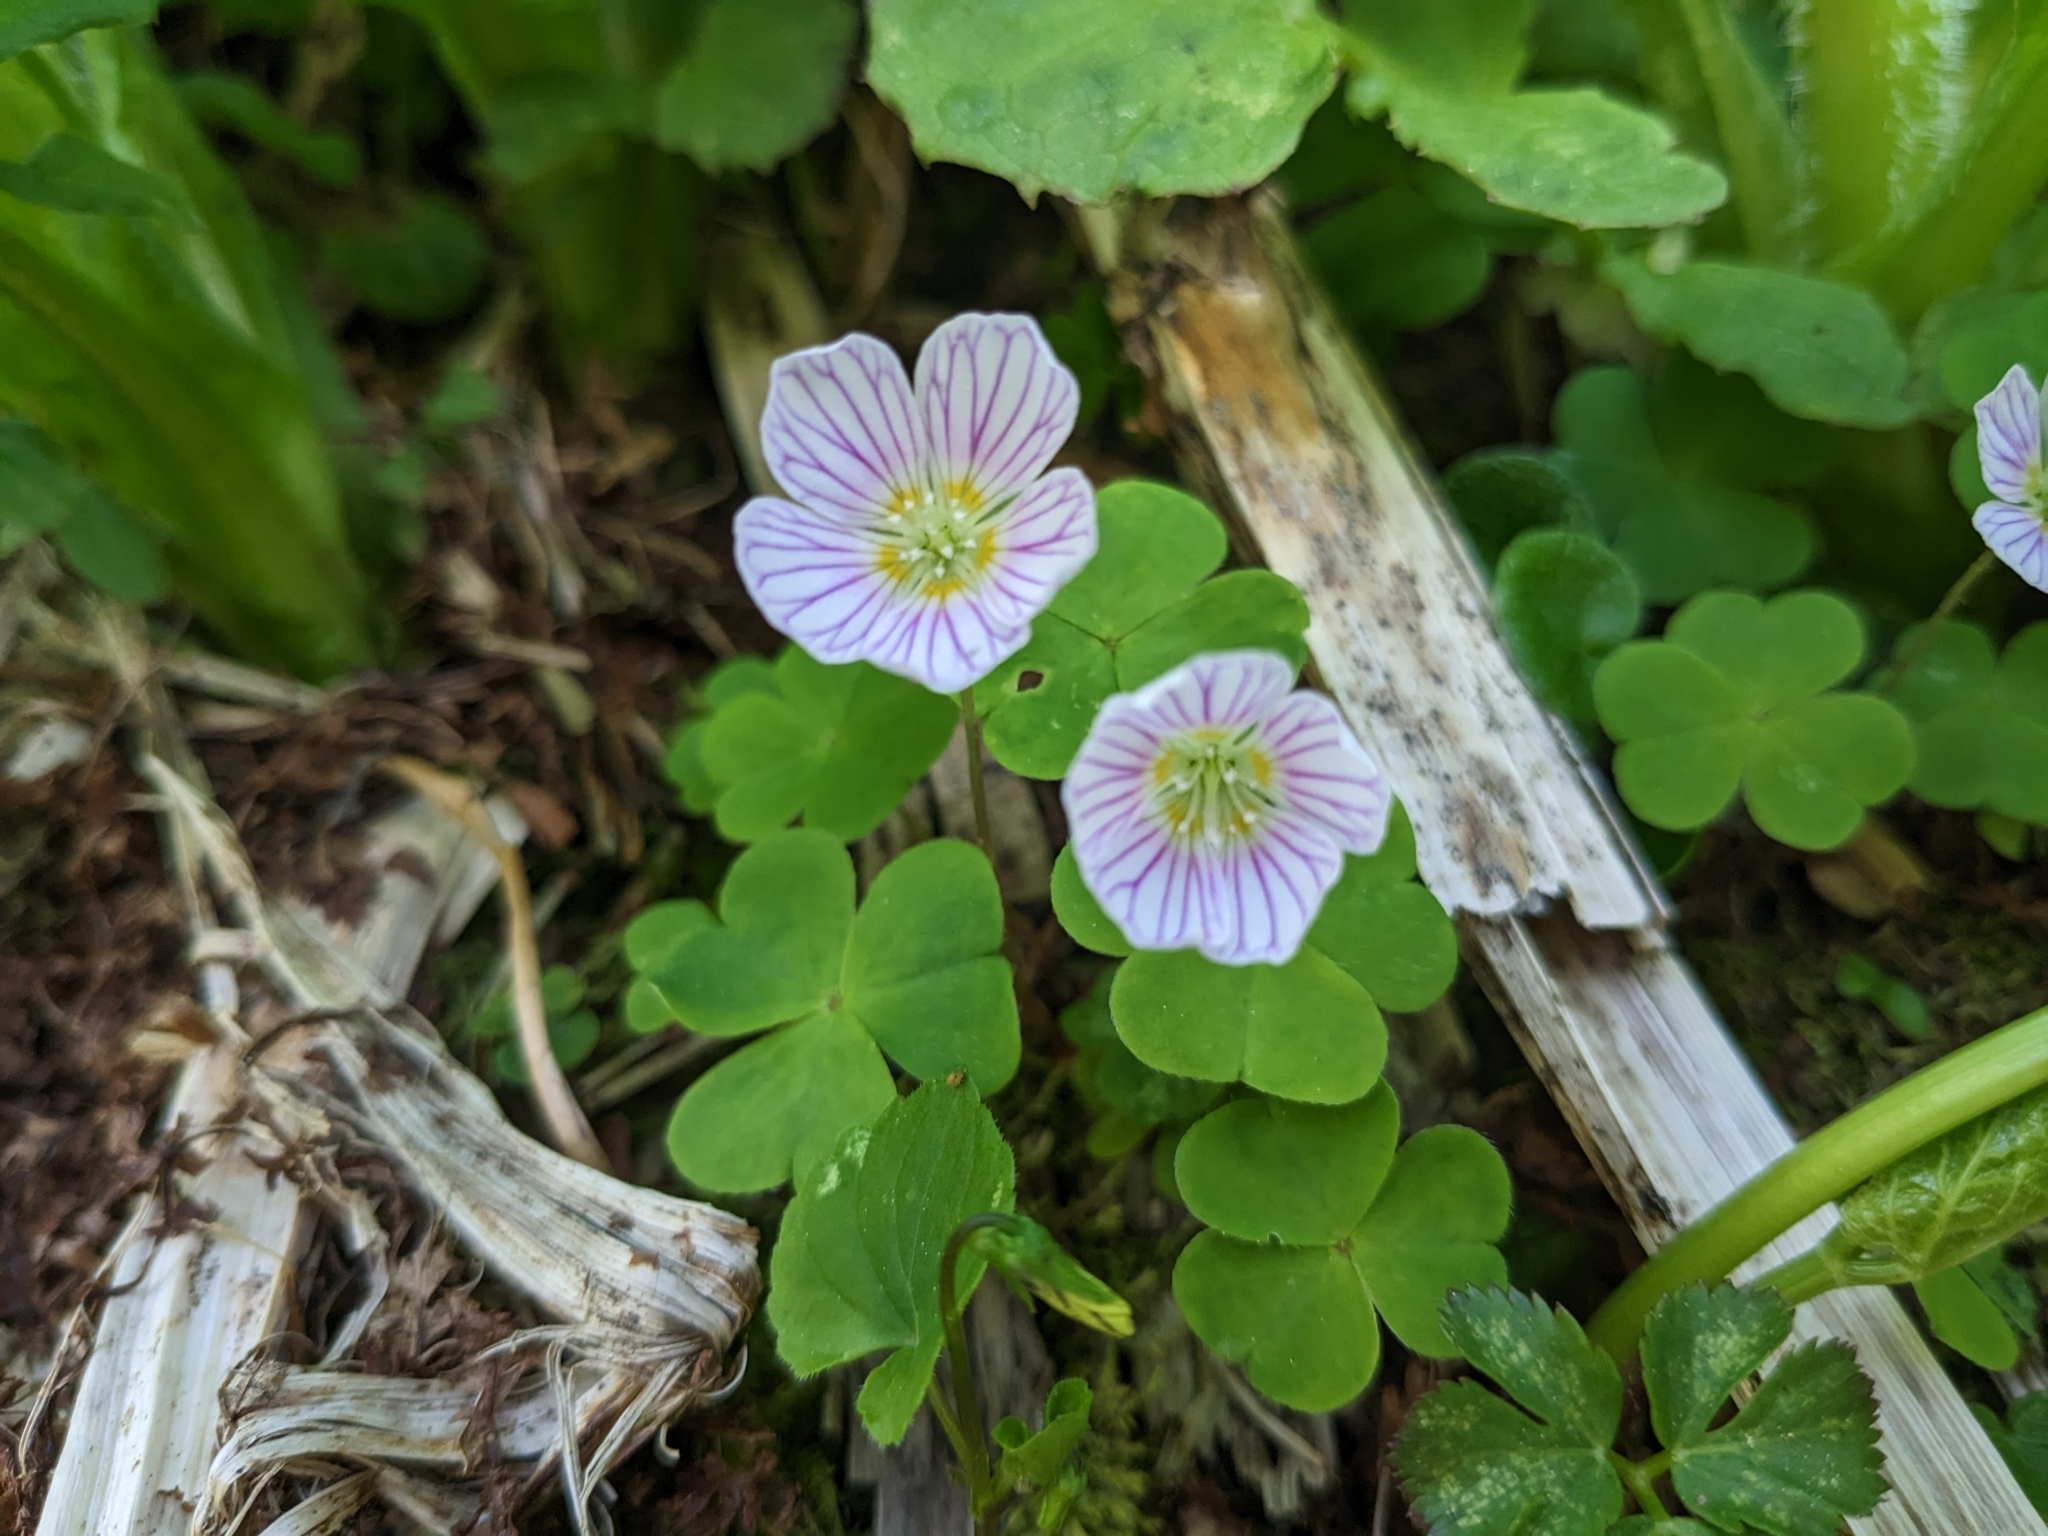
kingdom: Plantae
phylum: Tracheophyta
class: Magnoliopsida
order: Oxalidales
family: Oxalidaceae
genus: Oxalis
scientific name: Oxalis acetosella
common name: Wood-sorrel
